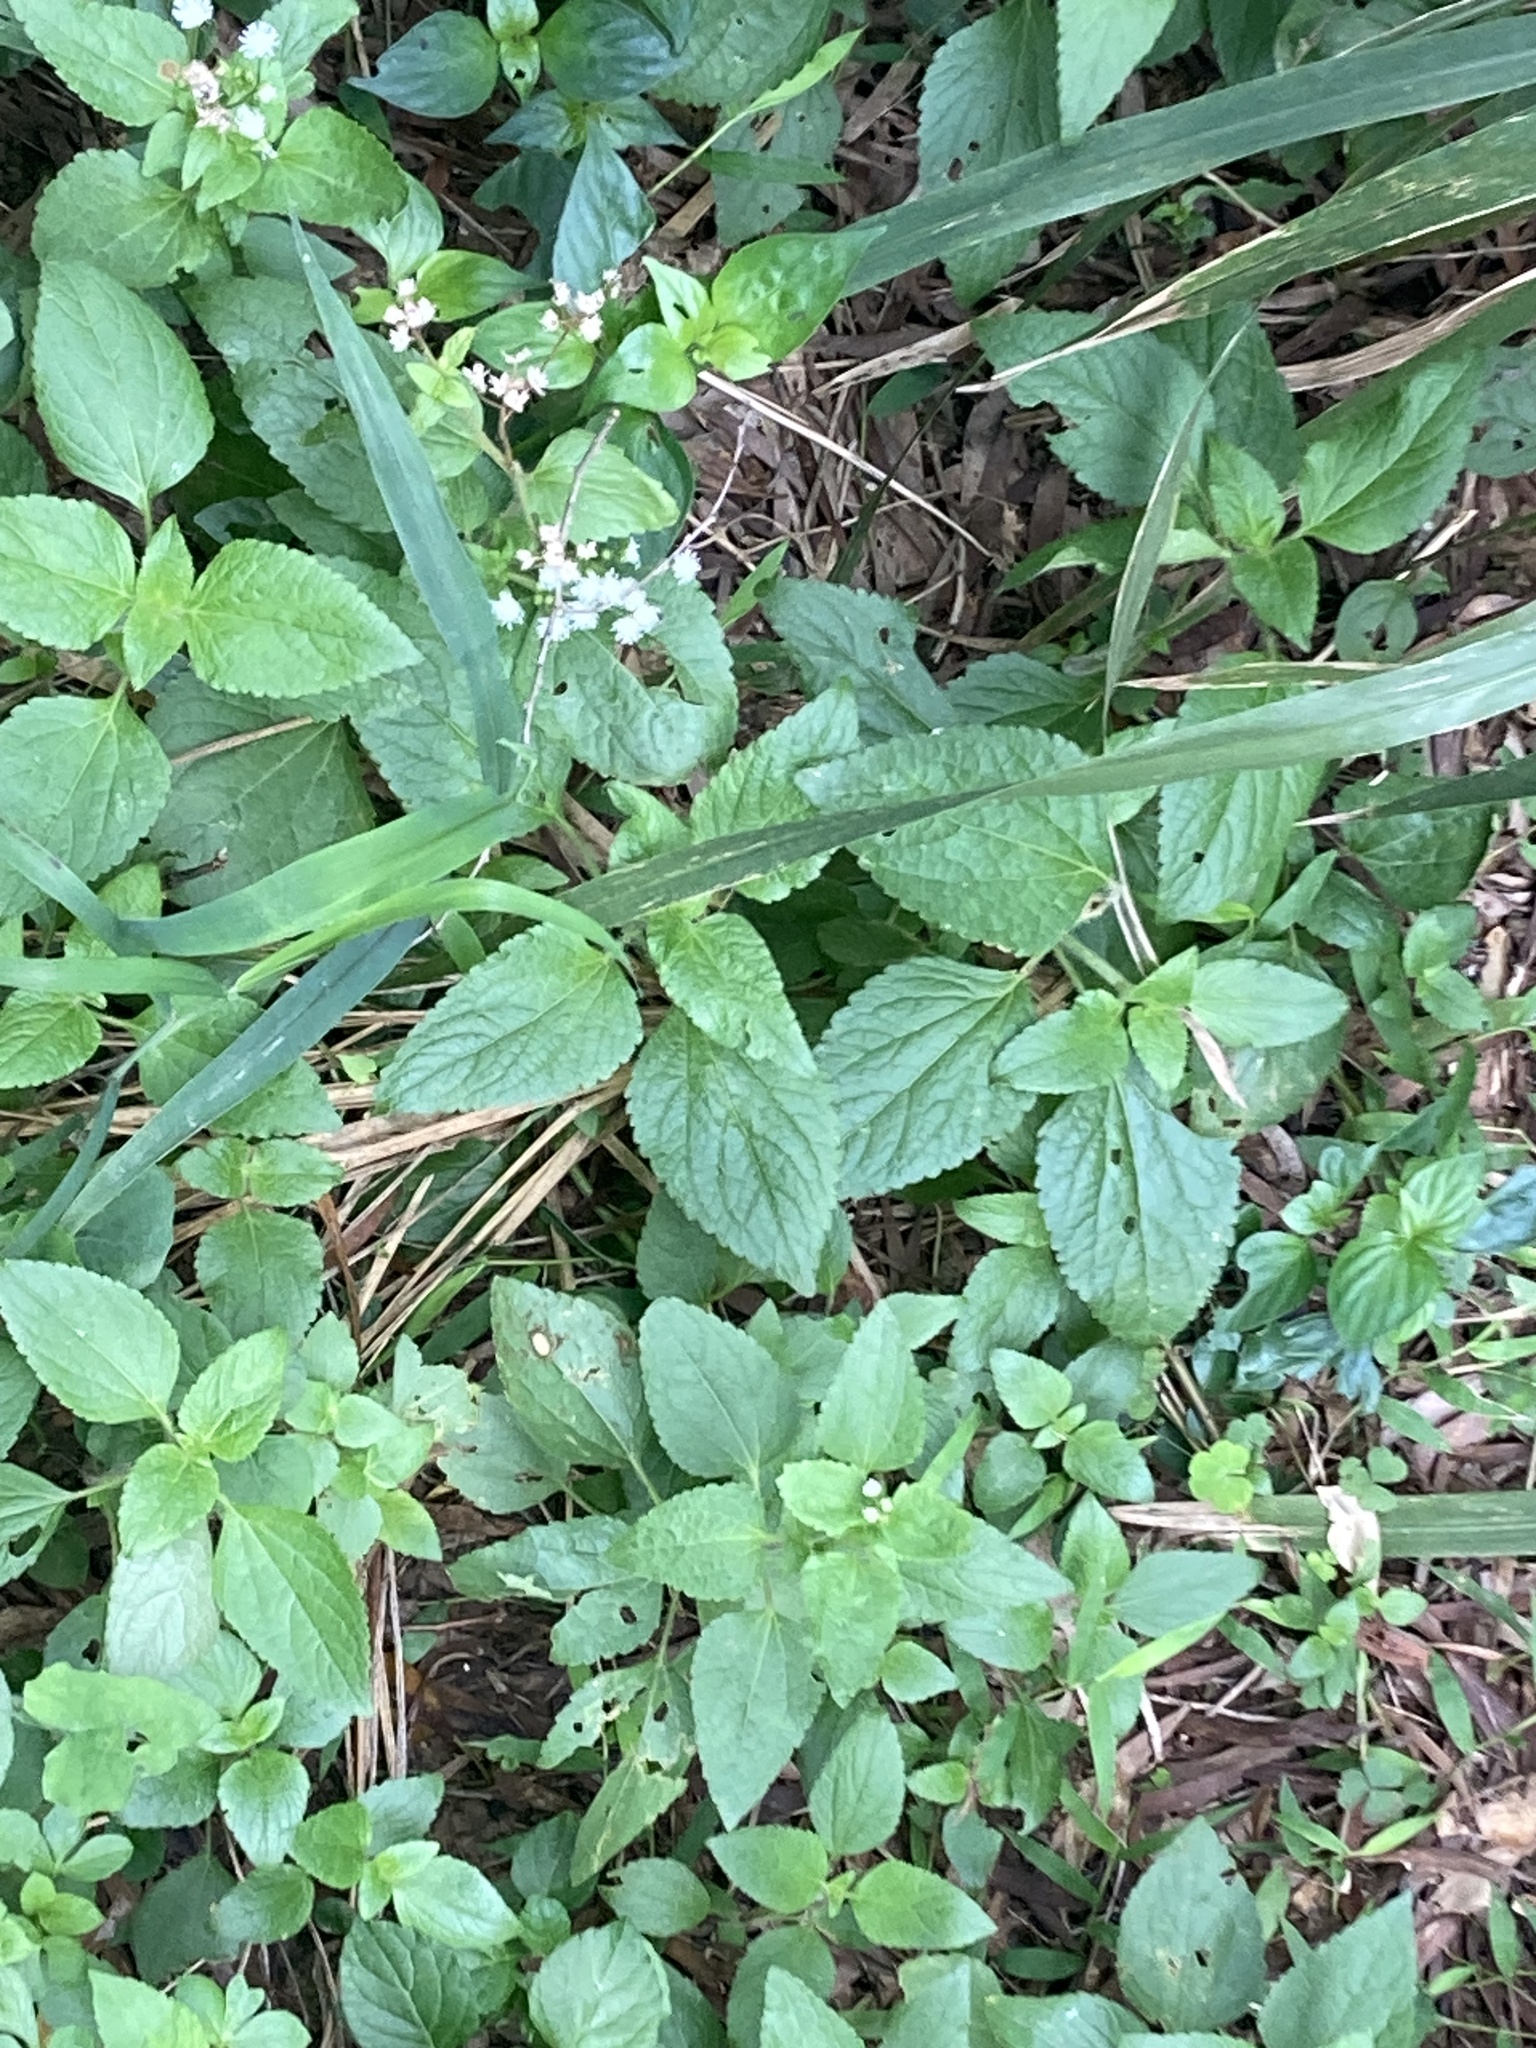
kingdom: Plantae
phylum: Tracheophyta
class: Magnoliopsida
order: Asterales
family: Asteraceae
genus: Ageratum
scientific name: Ageratum conyzoides
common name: Tropical whiteweed
